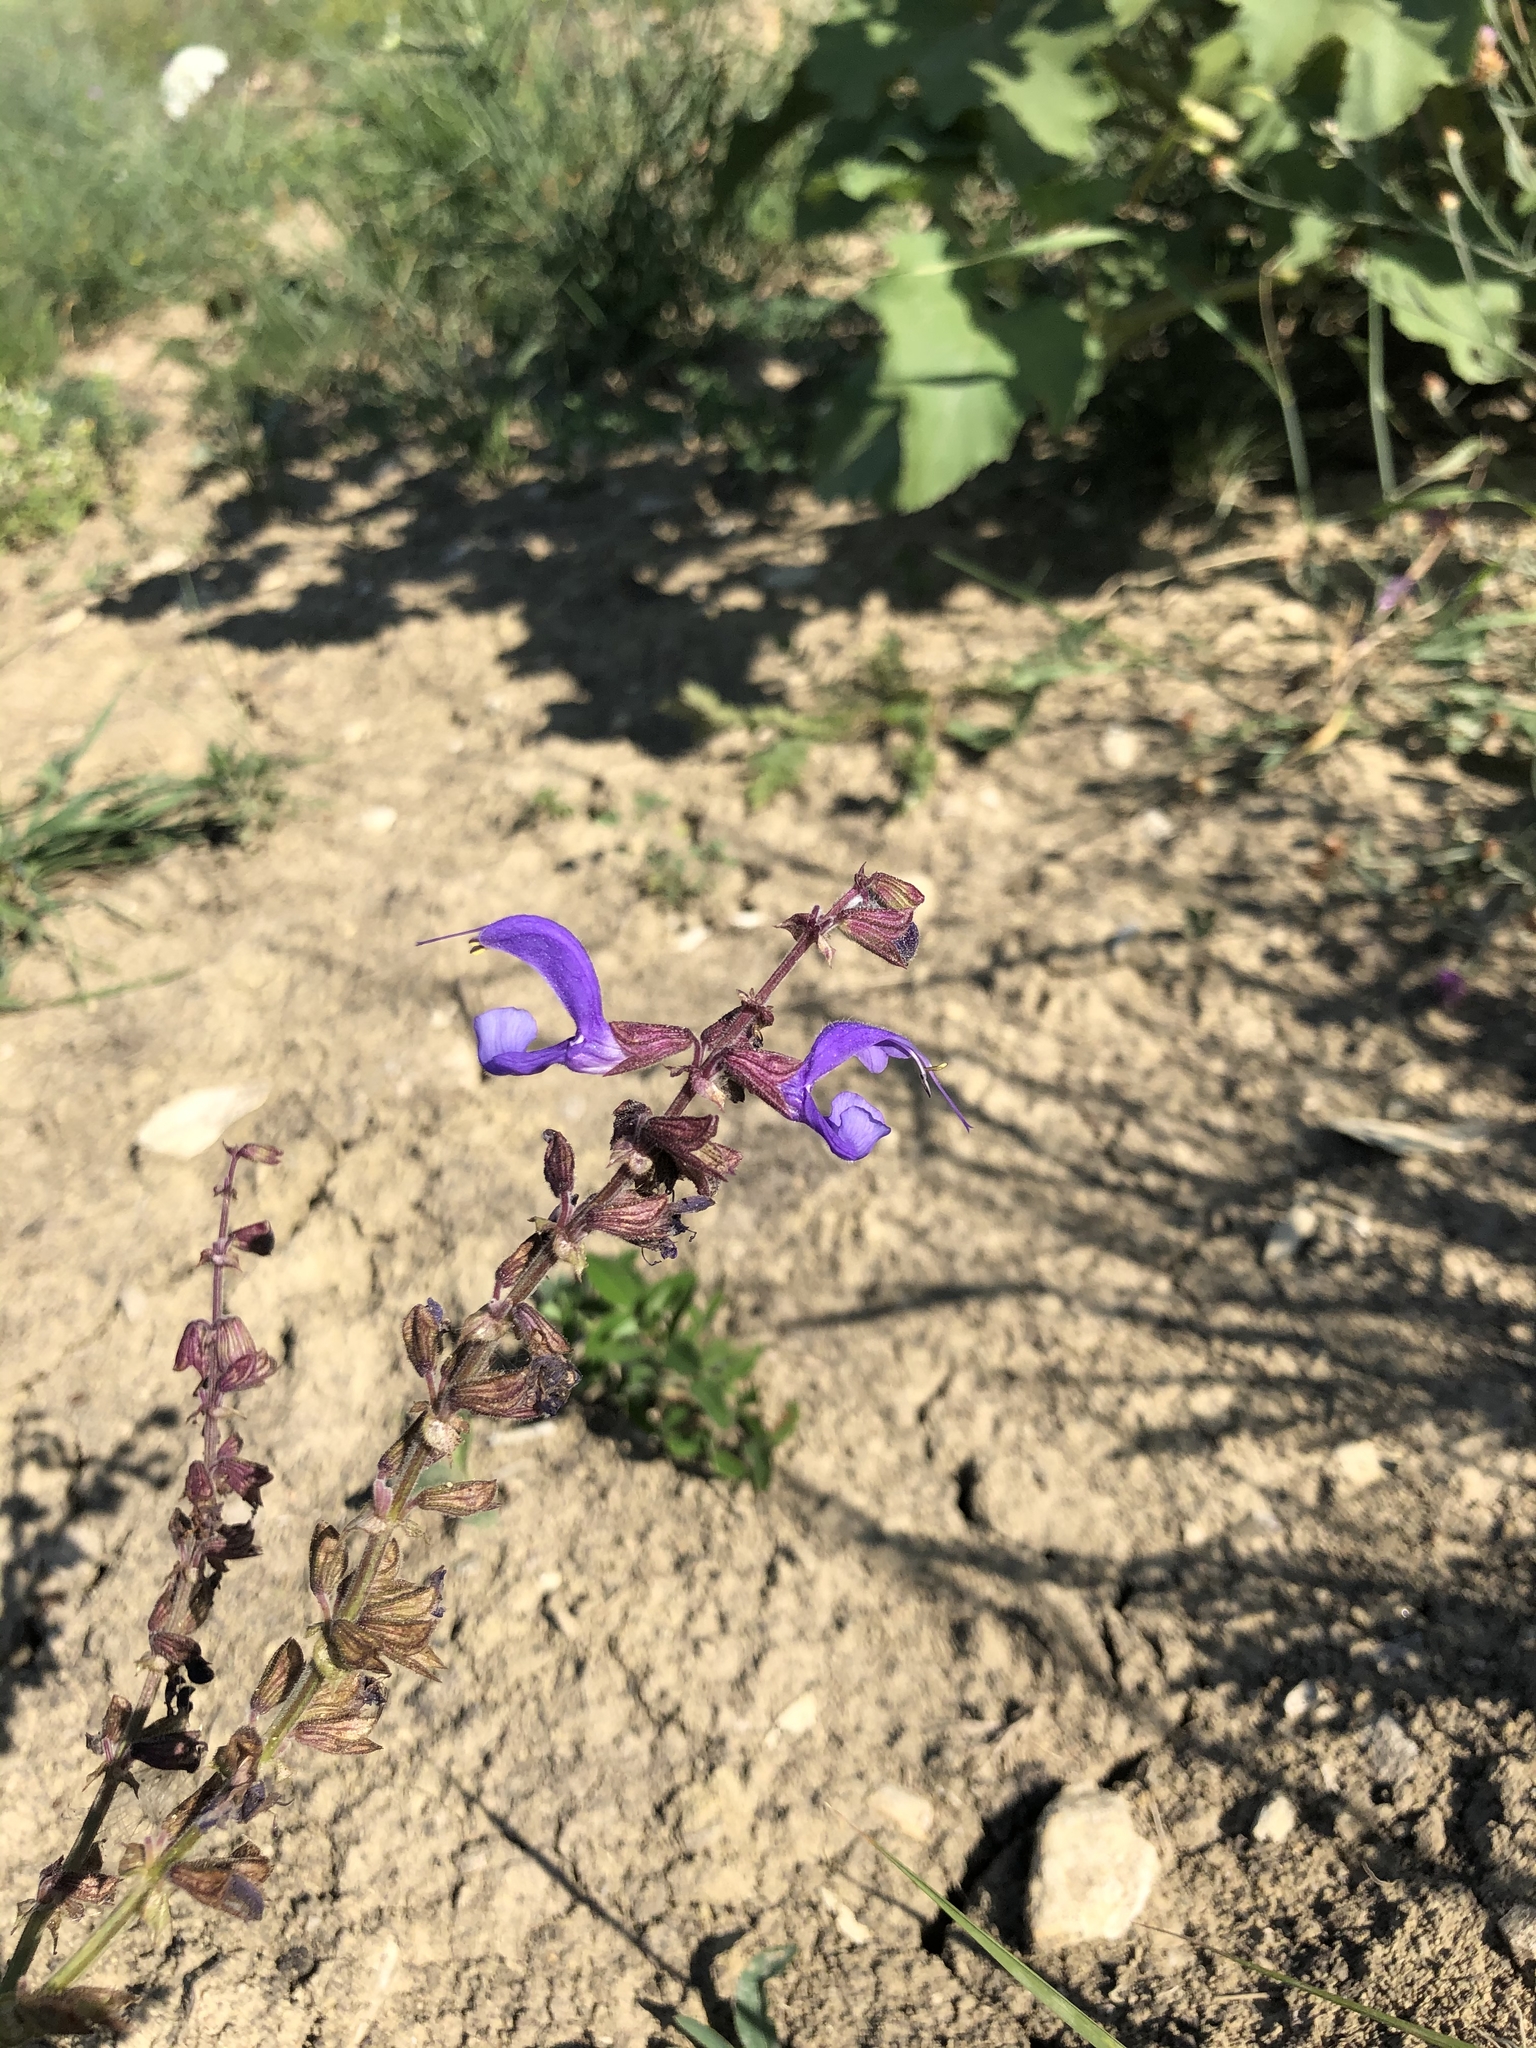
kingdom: Plantae
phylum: Tracheophyta
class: Magnoliopsida
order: Lamiales
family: Lamiaceae
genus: Salvia
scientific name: Salvia pratensis
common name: Meadow sage
